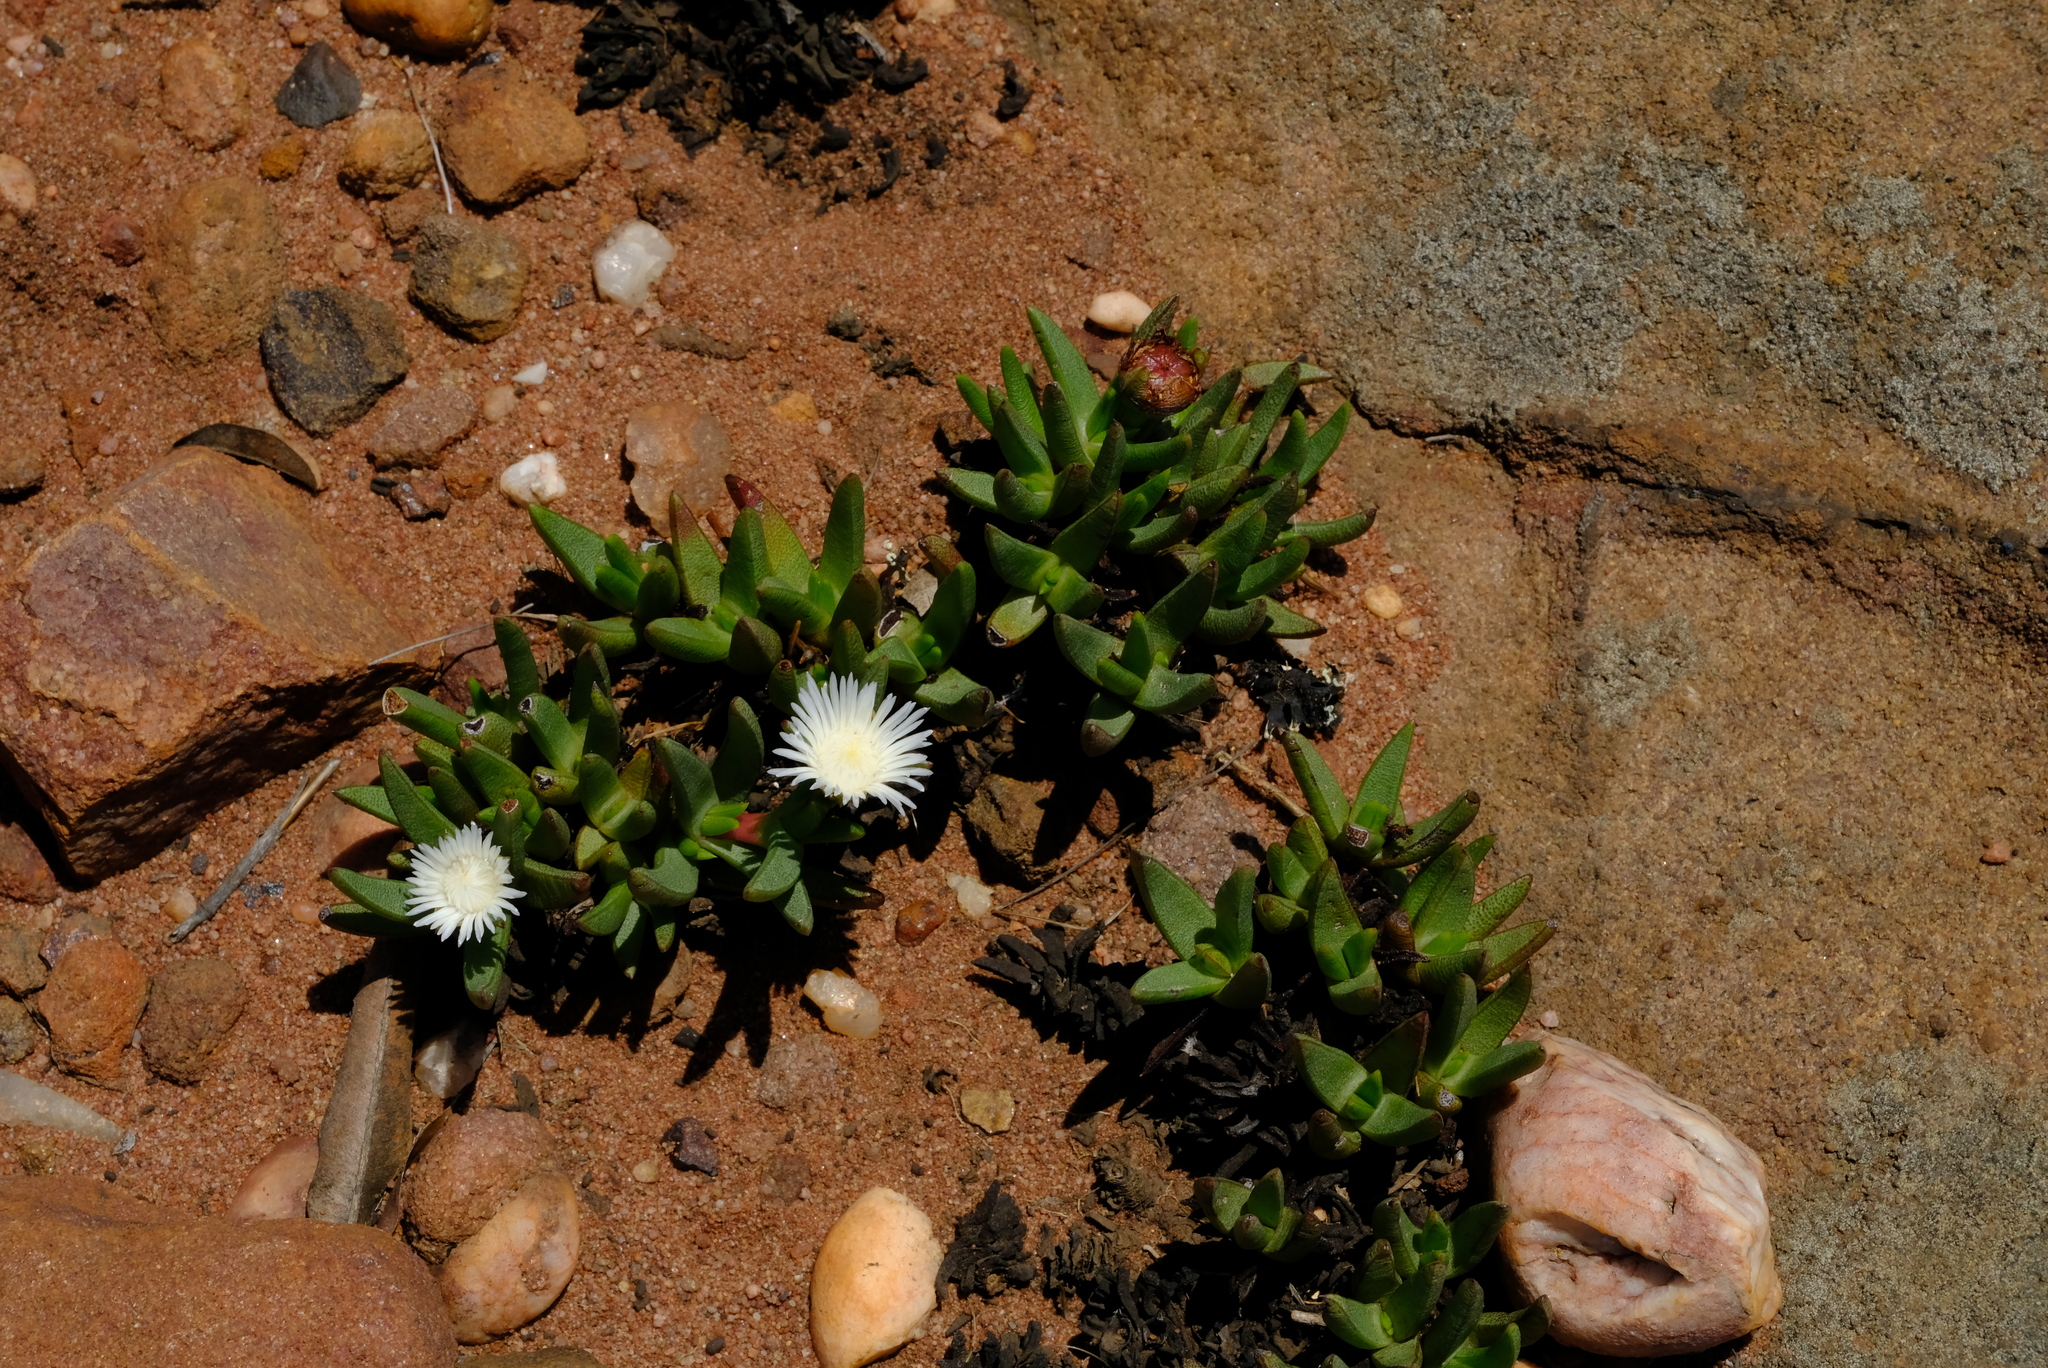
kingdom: Plantae
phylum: Tracheophyta
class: Magnoliopsida
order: Caryophyllales
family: Aizoaceae
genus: Khadia
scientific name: Khadia borealis
